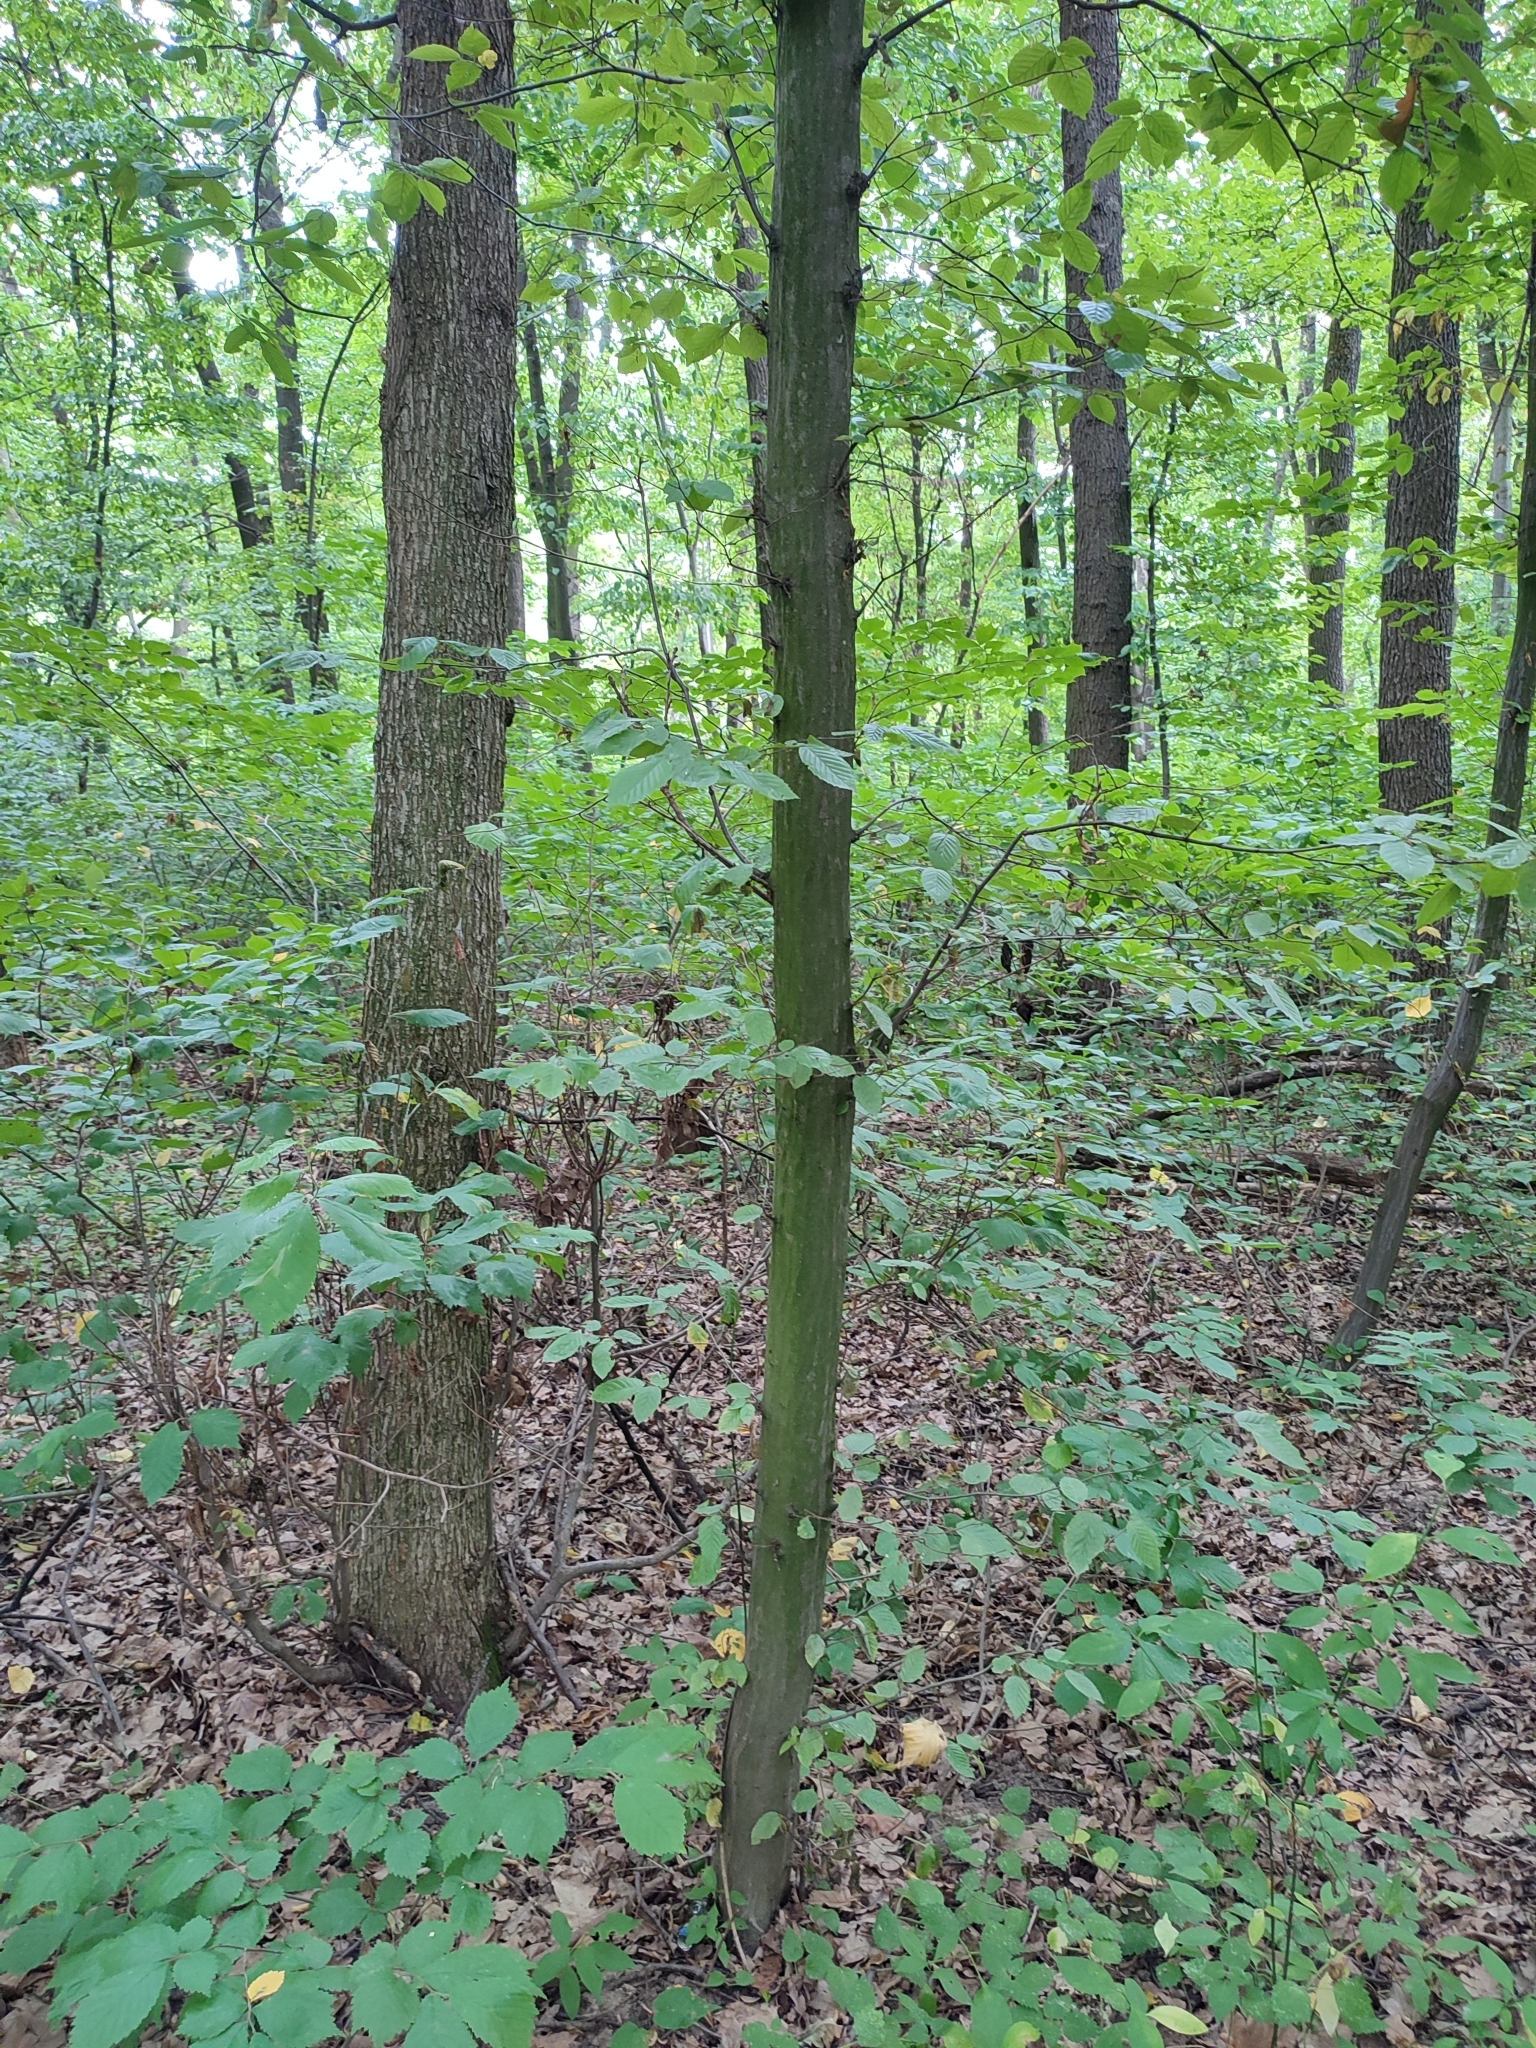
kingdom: Plantae
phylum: Tracheophyta
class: Magnoliopsida
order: Fagales
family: Betulaceae
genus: Carpinus
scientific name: Carpinus betulus
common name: Hornbeam
